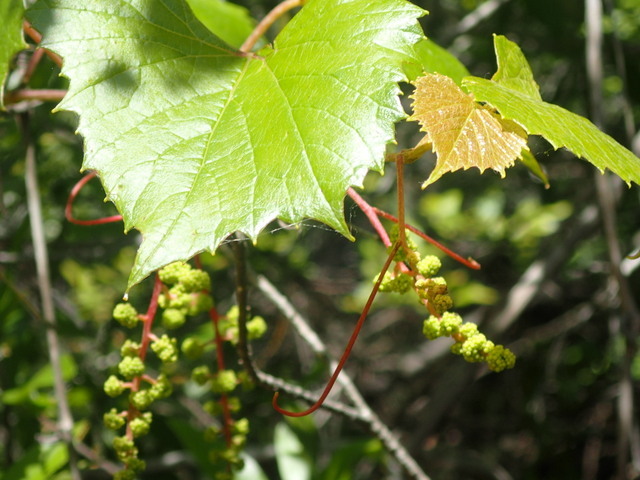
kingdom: Plantae
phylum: Tracheophyta
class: Magnoliopsida
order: Vitales
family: Vitaceae
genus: Vitis
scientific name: Vitis vulpina
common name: Frost grape
